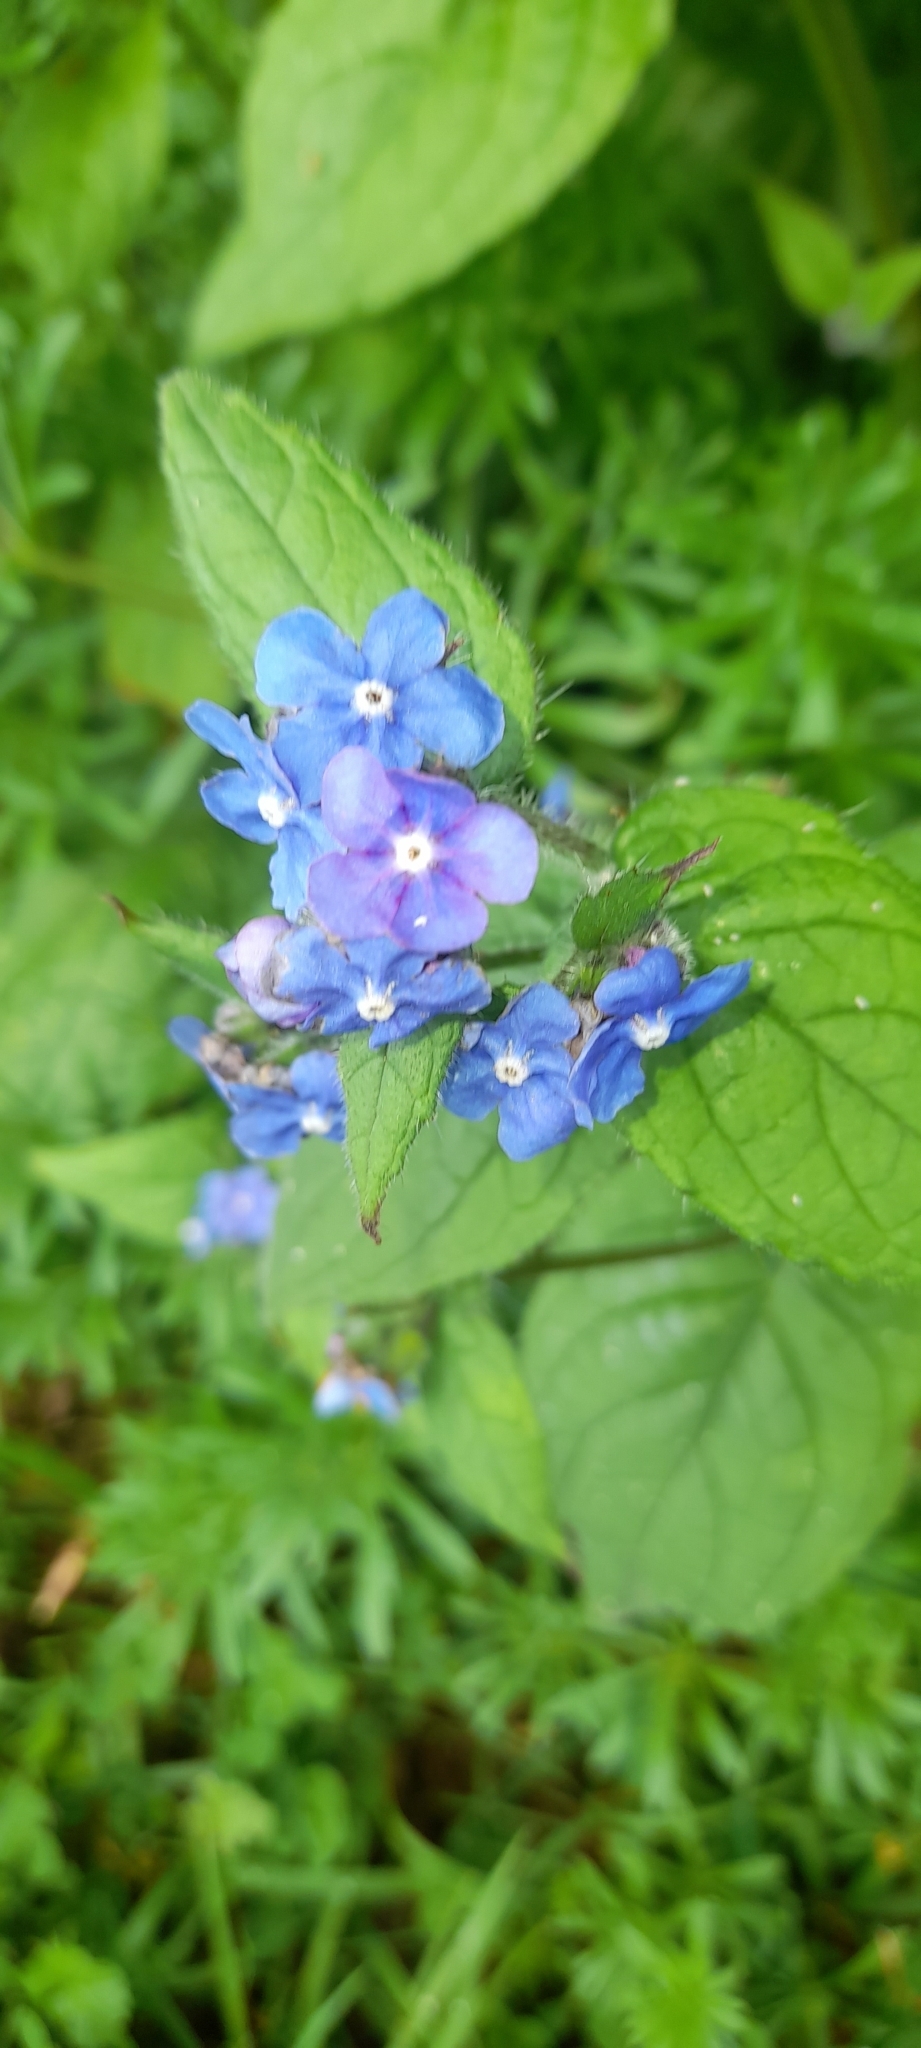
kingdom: Plantae
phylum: Tracheophyta
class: Magnoliopsida
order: Boraginales
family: Boraginaceae
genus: Pentaglottis
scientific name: Pentaglottis sempervirens
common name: Green alkanet
